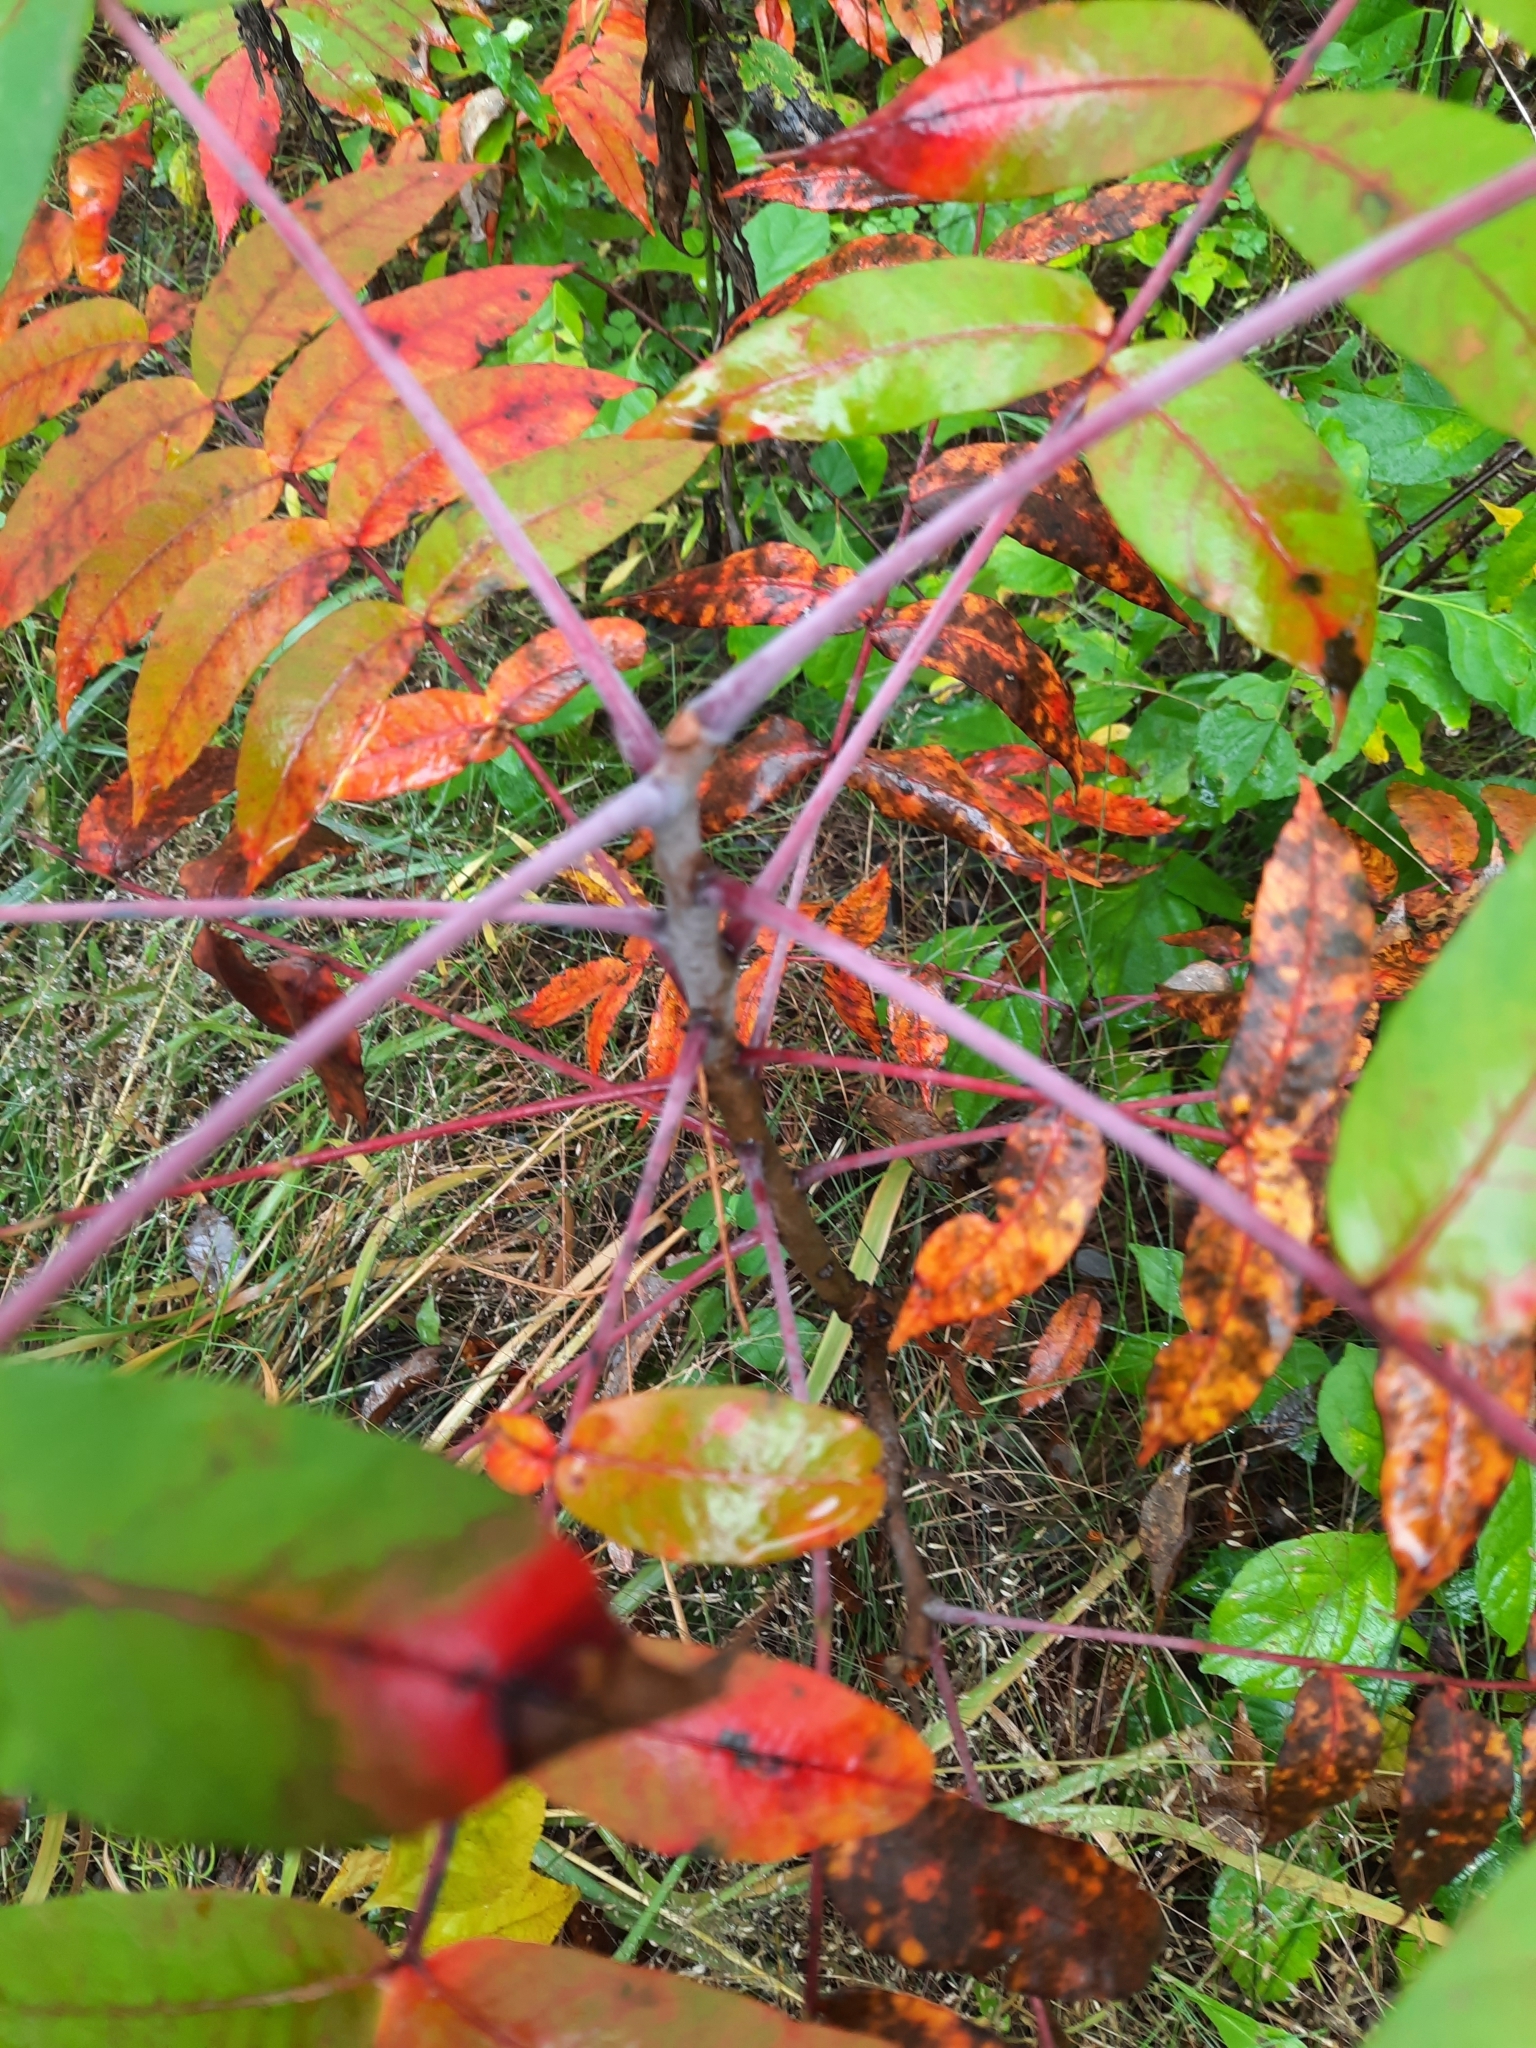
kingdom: Plantae
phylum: Tracheophyta
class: Magnoliopsida
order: Sapindales
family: Anacardiaceae
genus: Rhus
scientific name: Rhus glabra
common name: Scarlet sumac
